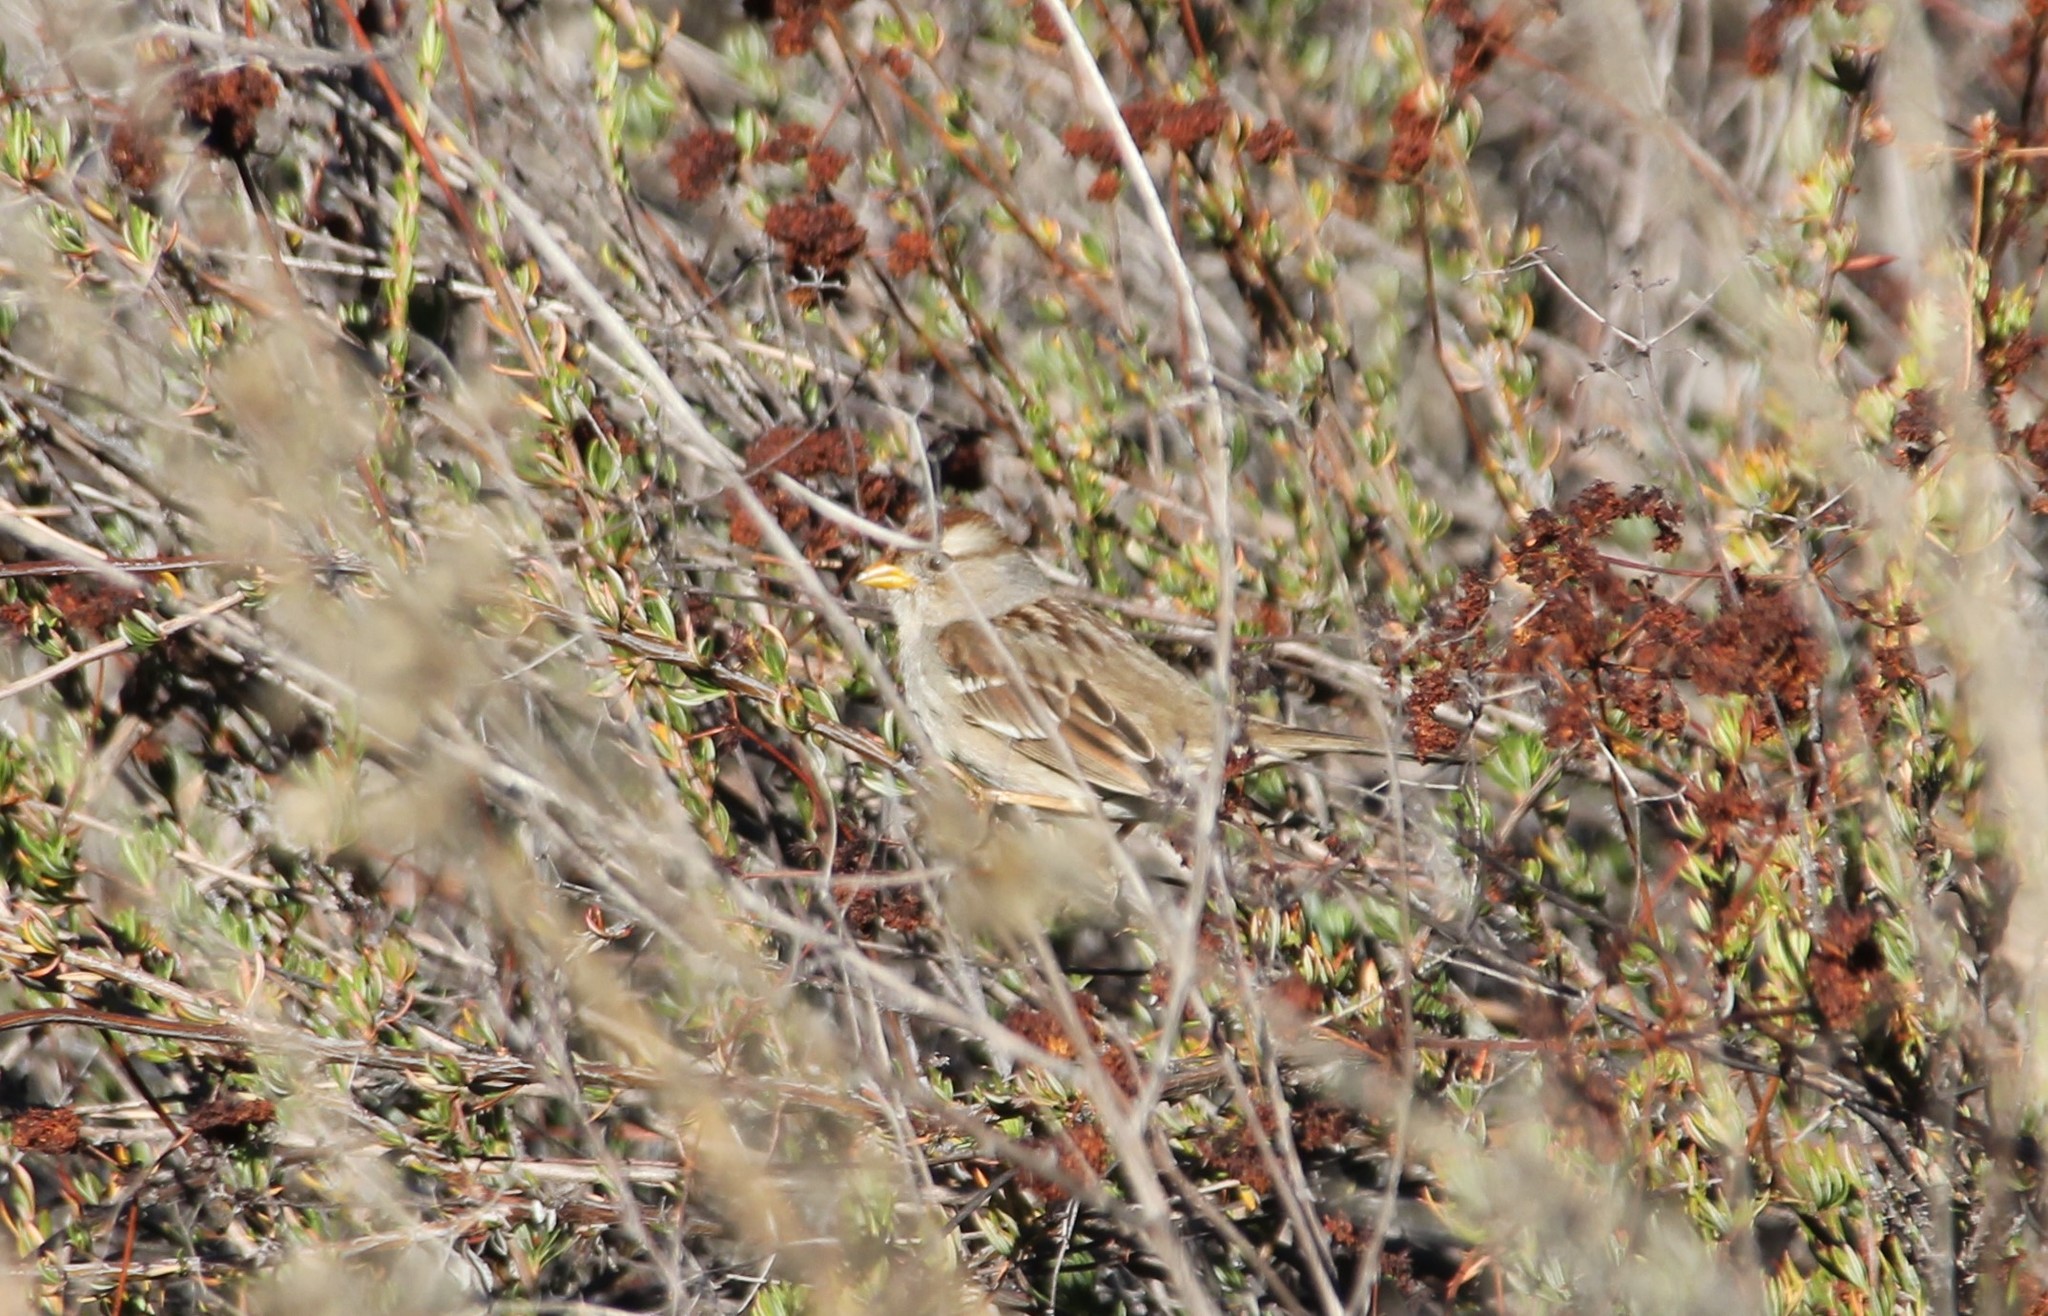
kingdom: Animalia
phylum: Chordata
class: Aves
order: Passeriformes
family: Passerellidae
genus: Zonotrichia
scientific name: Zonotrichia leucophrys
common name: White-crowned sparrow
